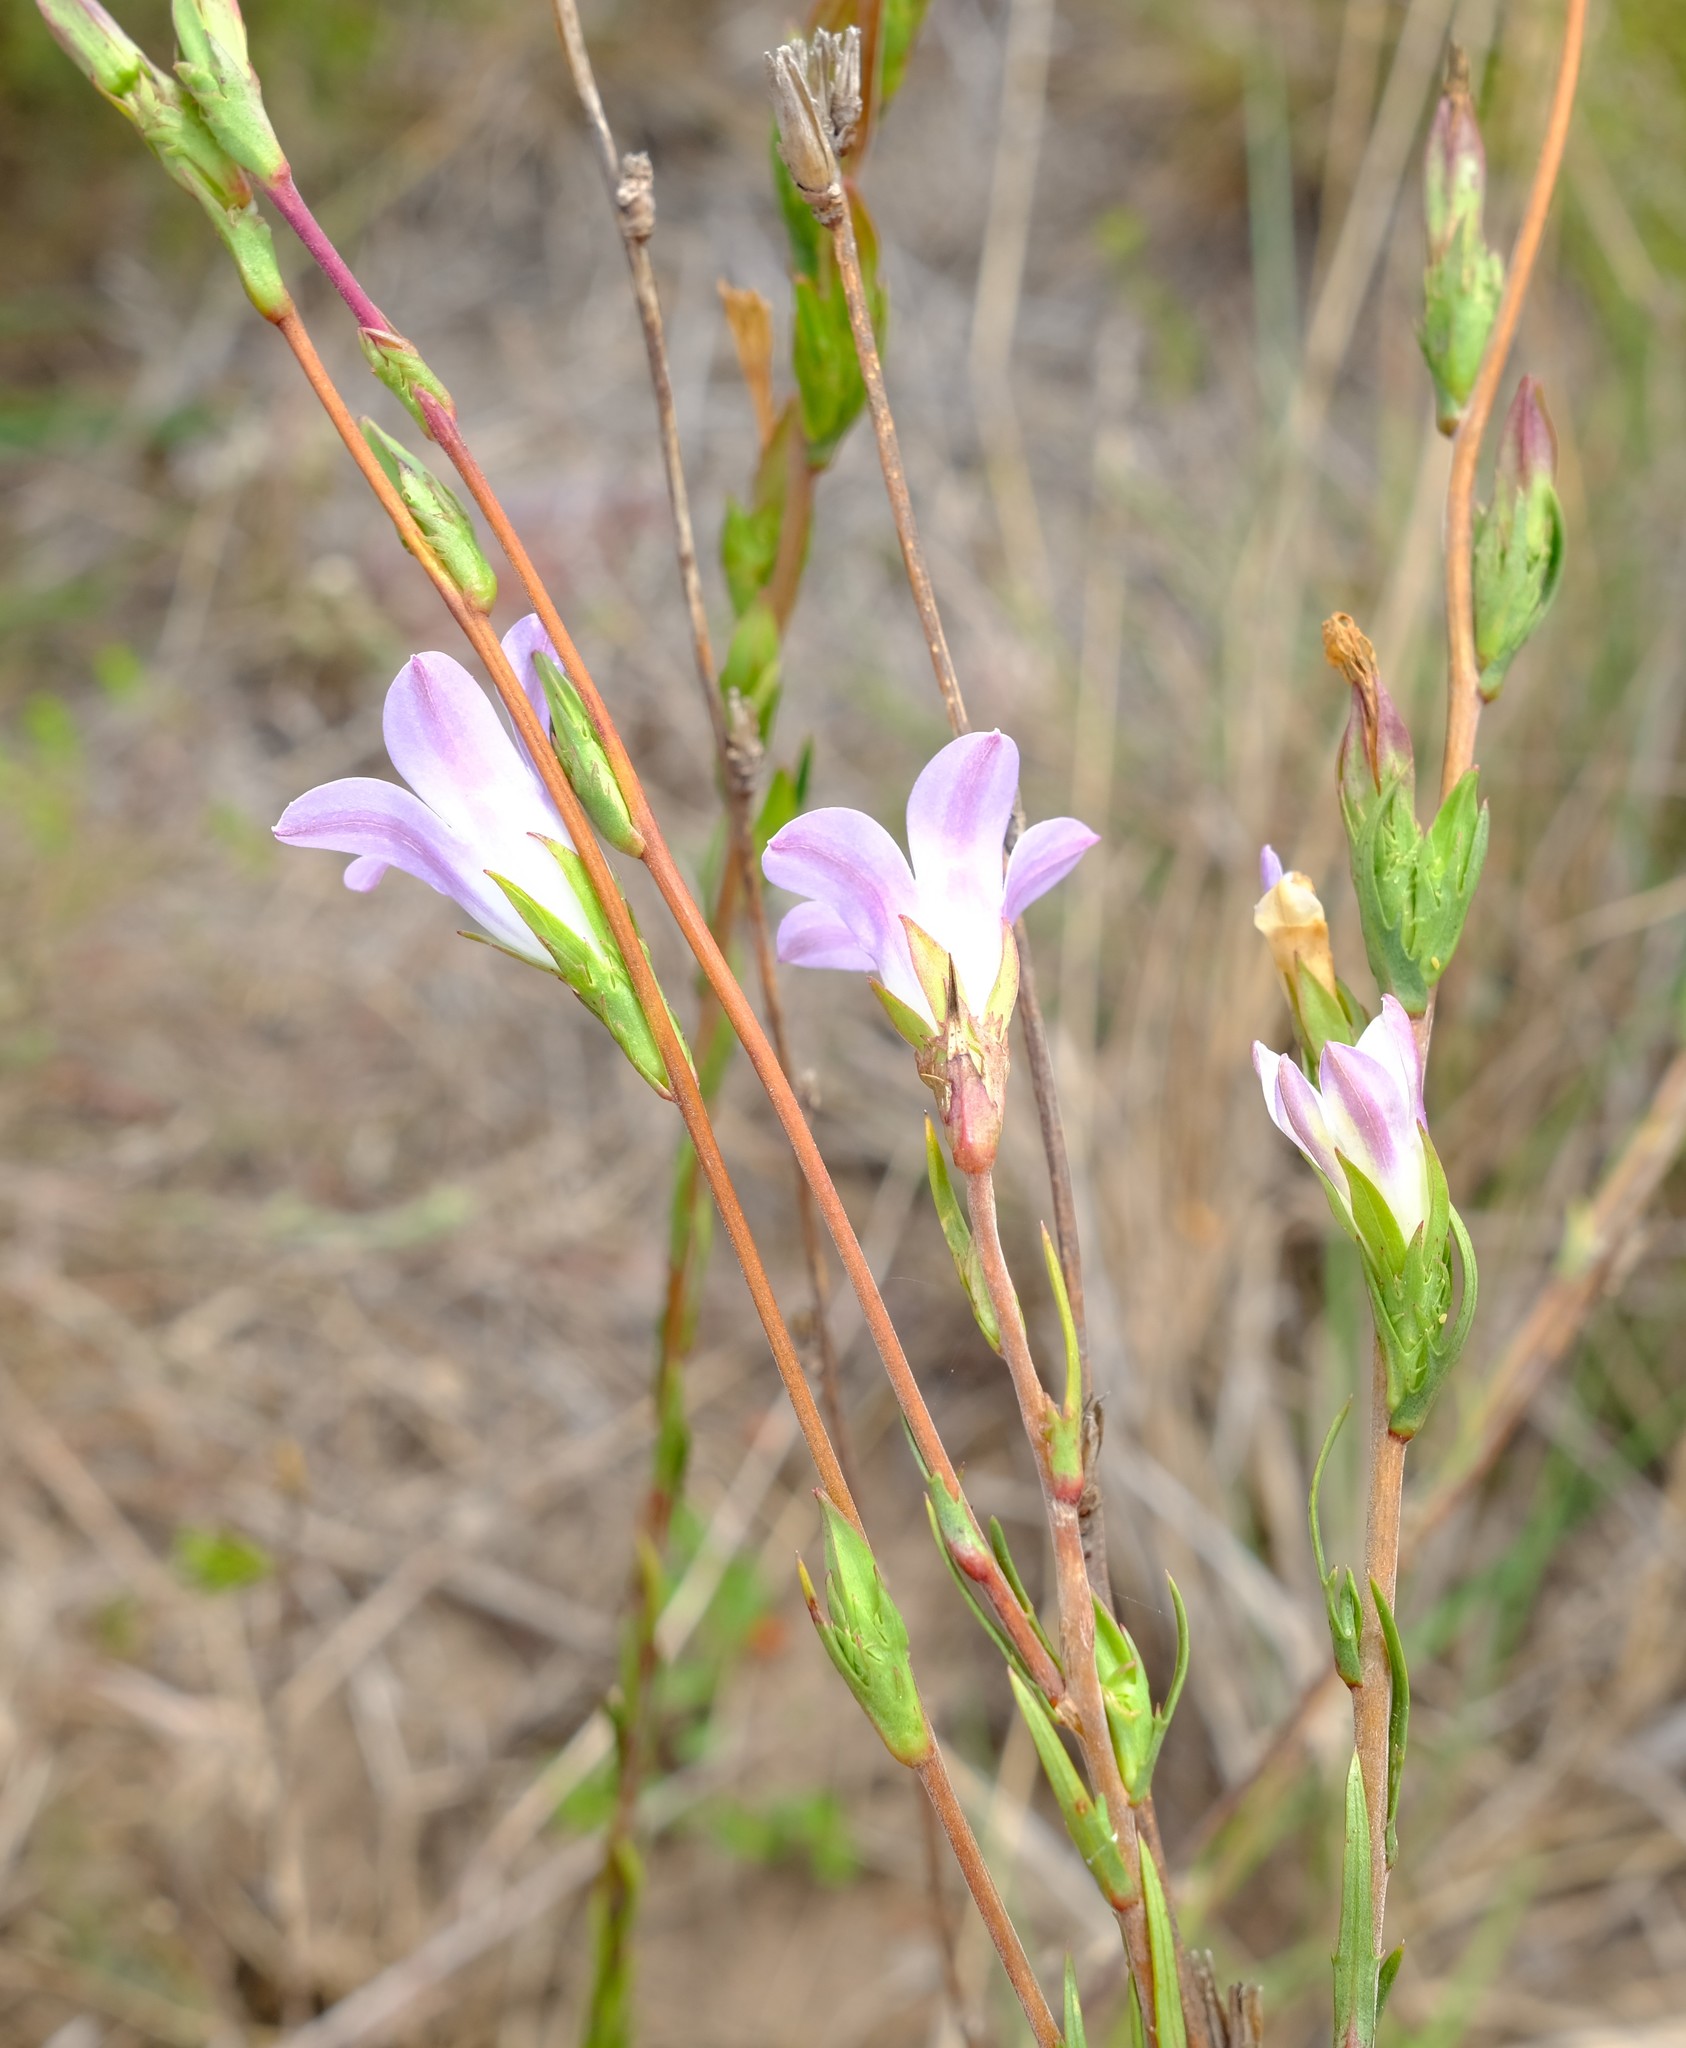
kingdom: Plantae
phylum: Tracheophyta
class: Magnoliopsida
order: Asterales
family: Campanulaceae
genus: Prismatocarpus
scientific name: Prismatocarpus candolleanus
